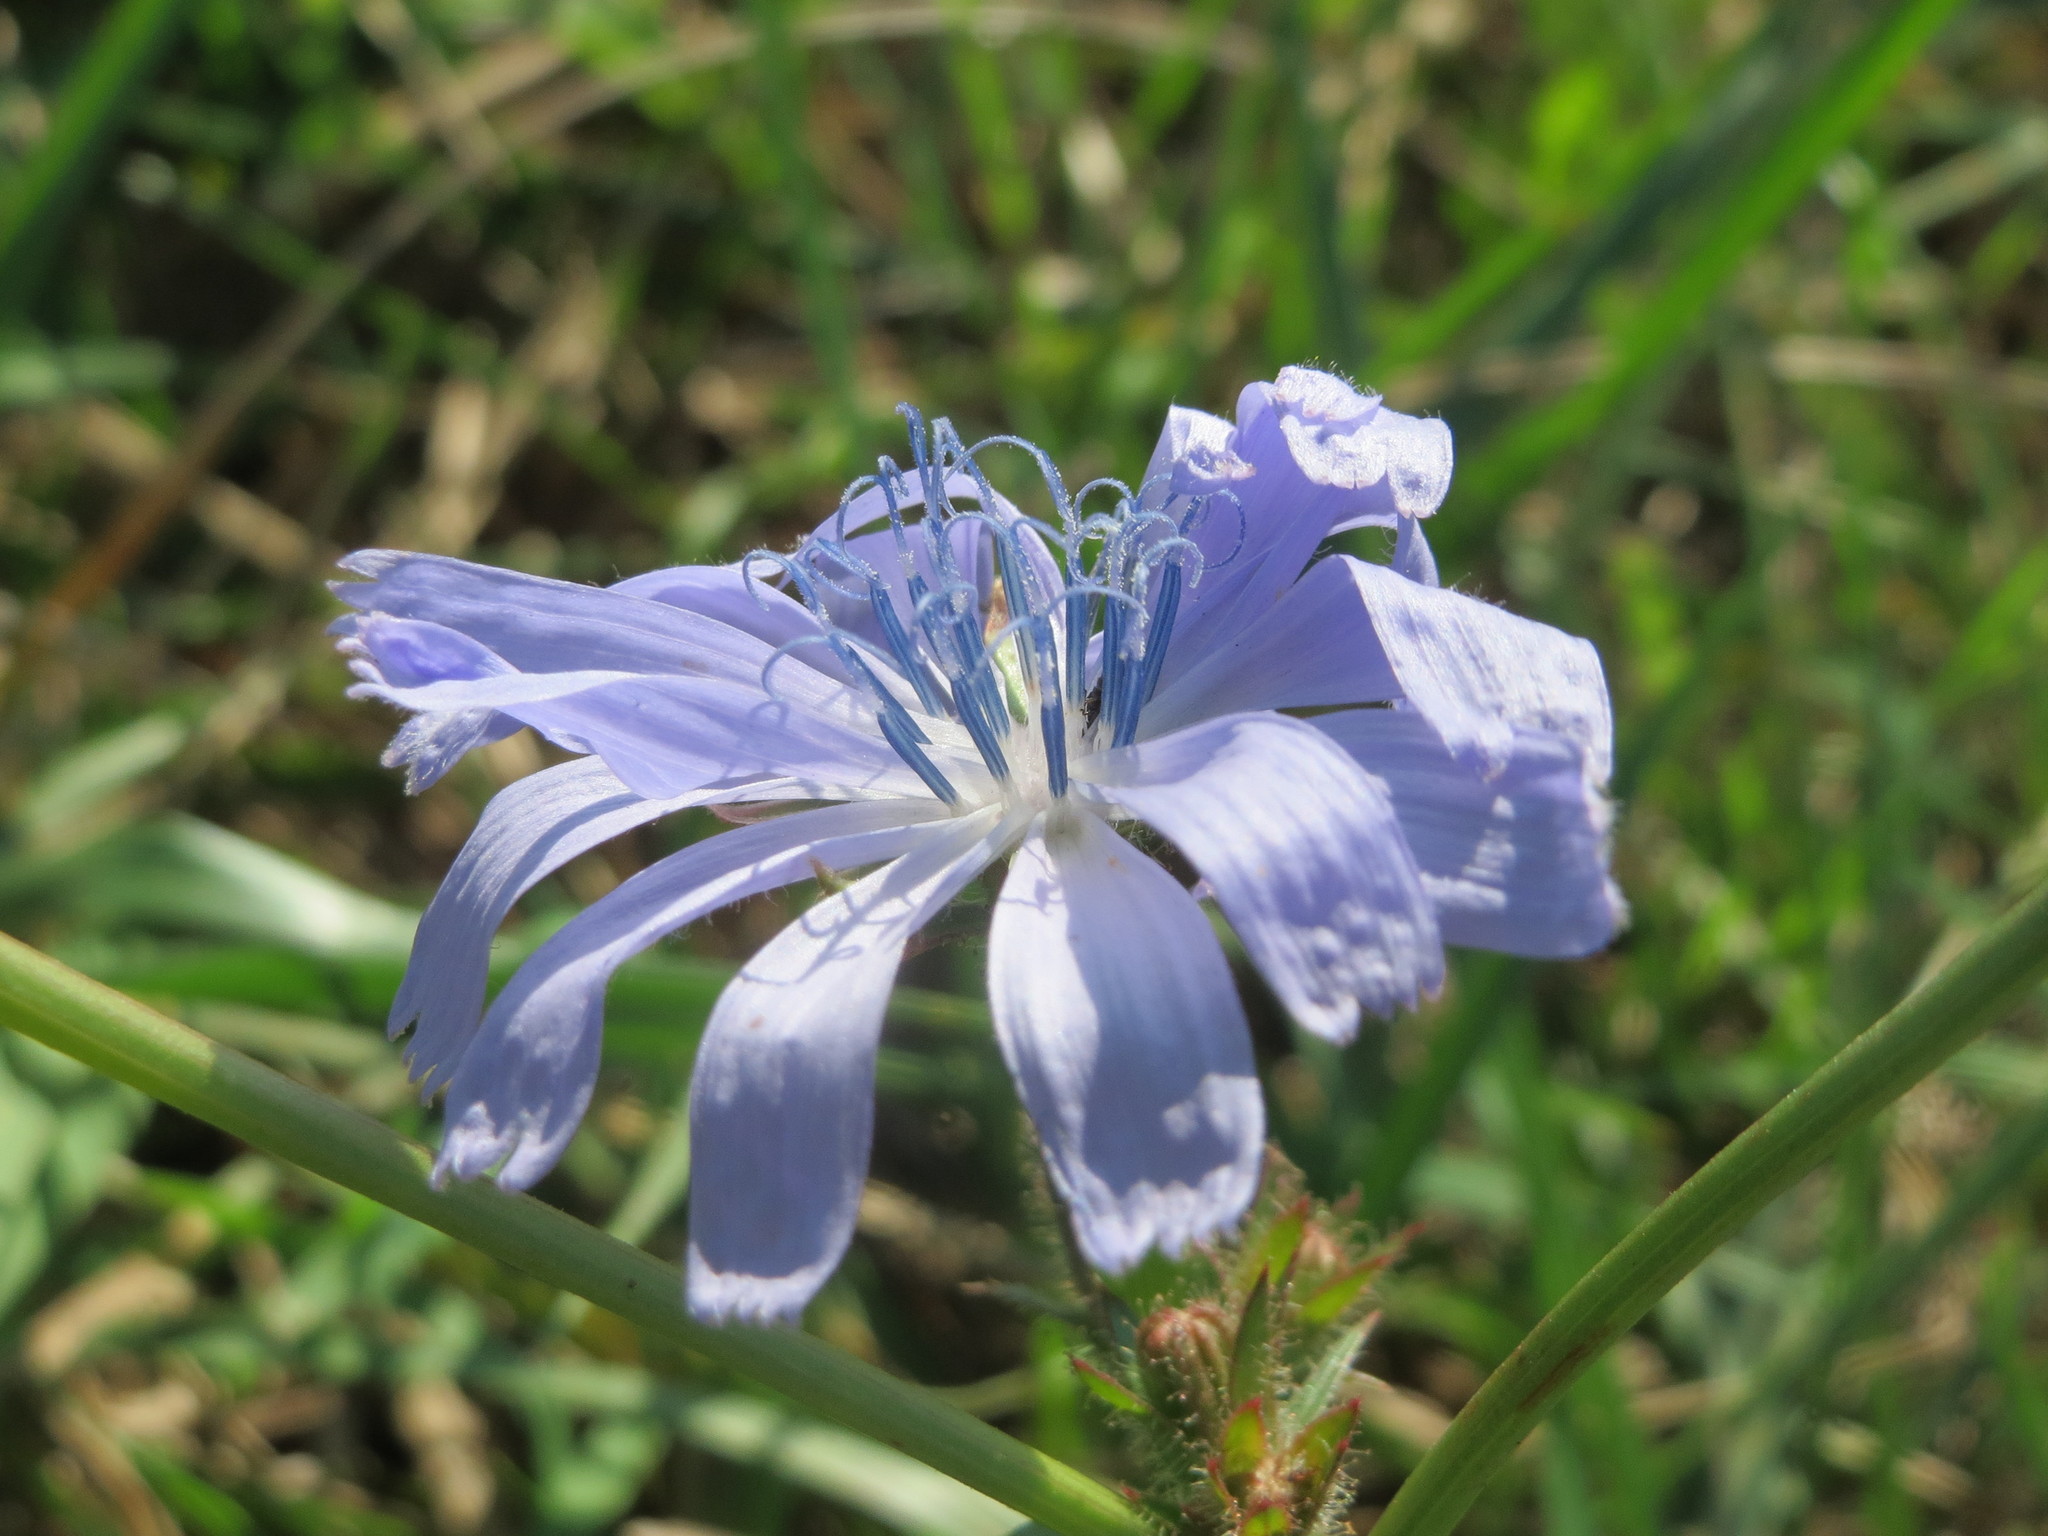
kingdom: Plantae
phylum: Tracheophyta
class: Magnoliopsida
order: Asterales
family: Asteraceae
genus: Cichorium
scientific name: Cichorium intybus
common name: Chicory
